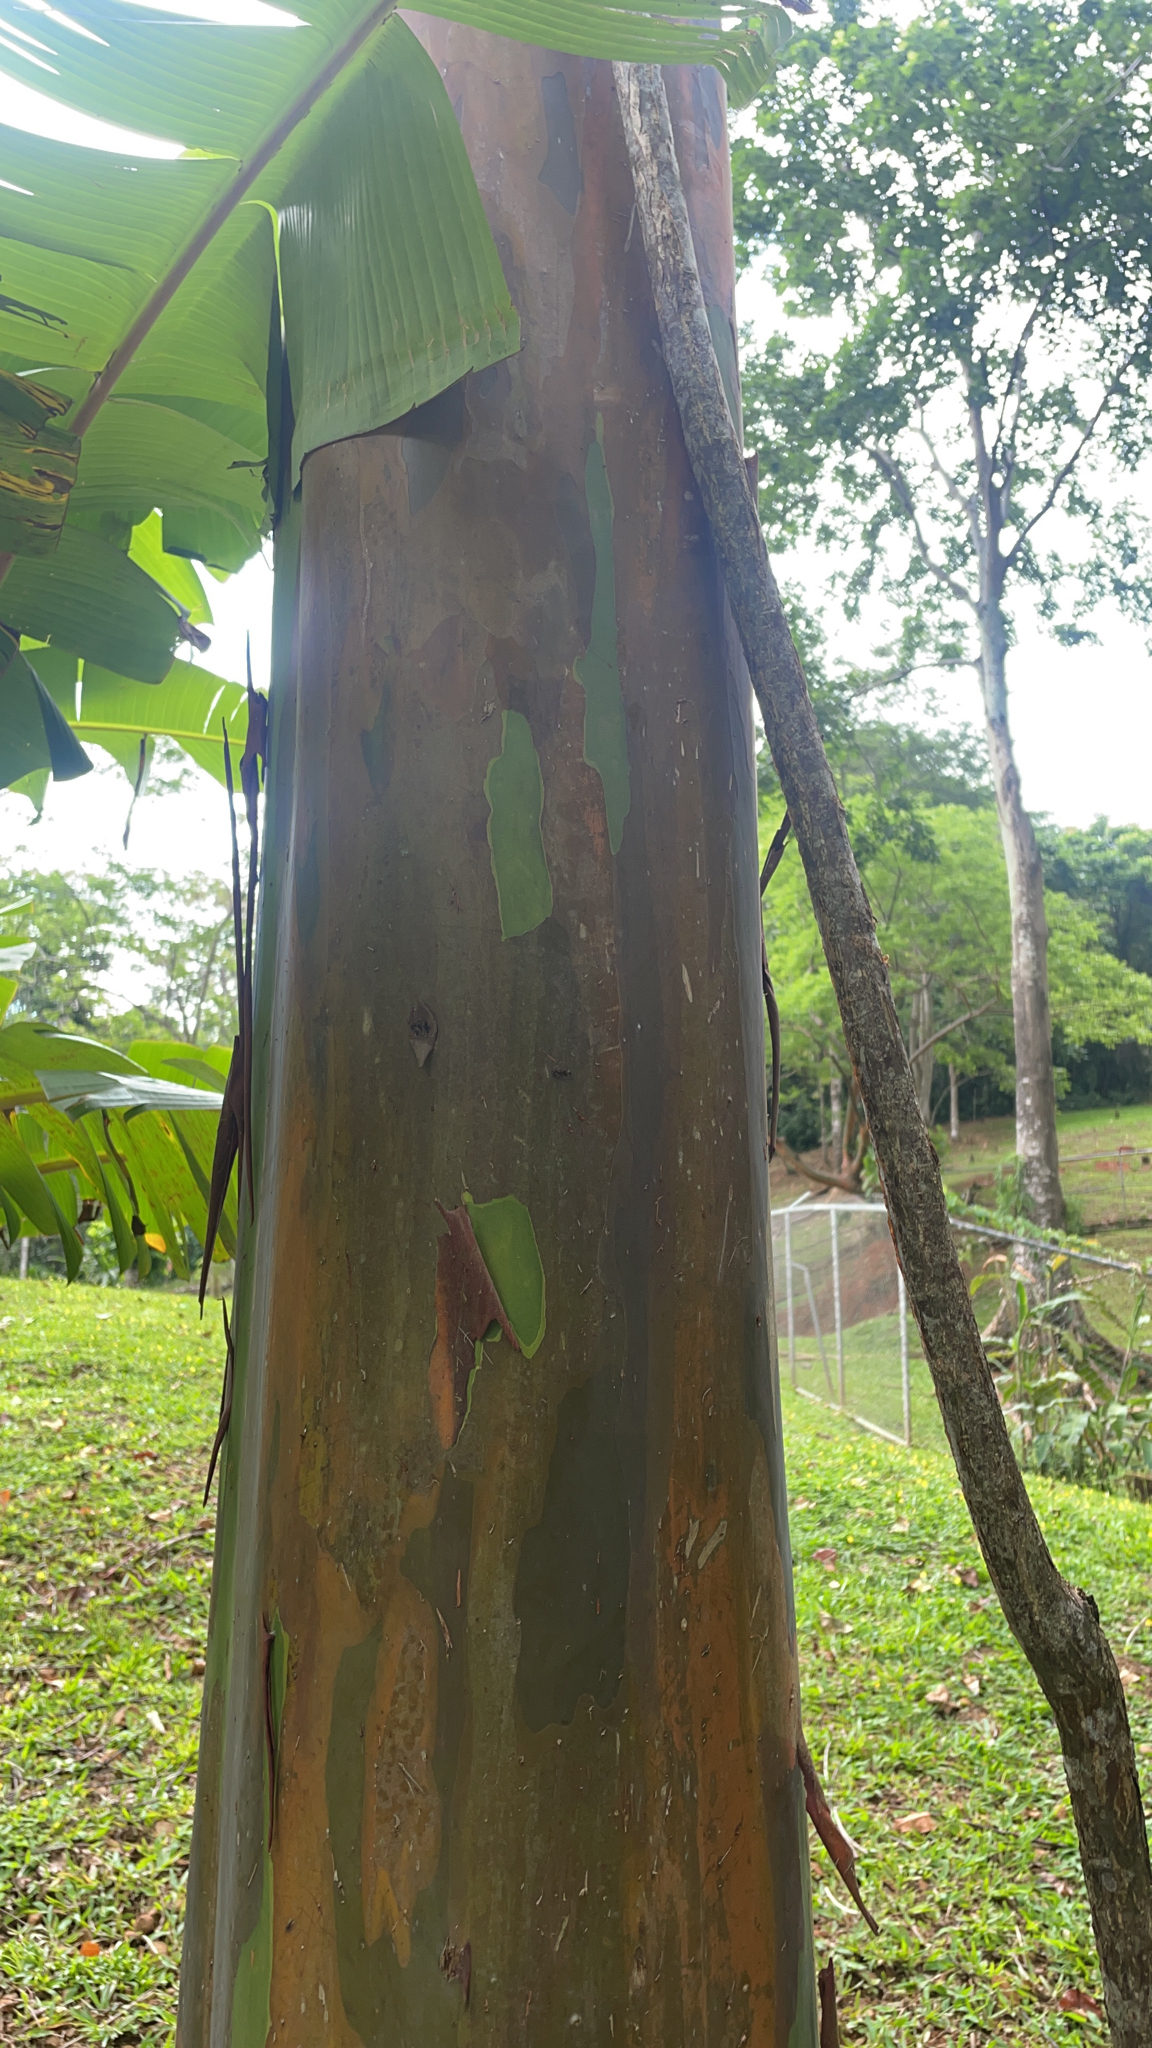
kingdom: Plantae
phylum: Tracheophyta
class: Magnoliopsida
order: Myrtales
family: Myrtaceae
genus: Eucalyptus
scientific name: Eucalyptus deglupta
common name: Mindanao gum
